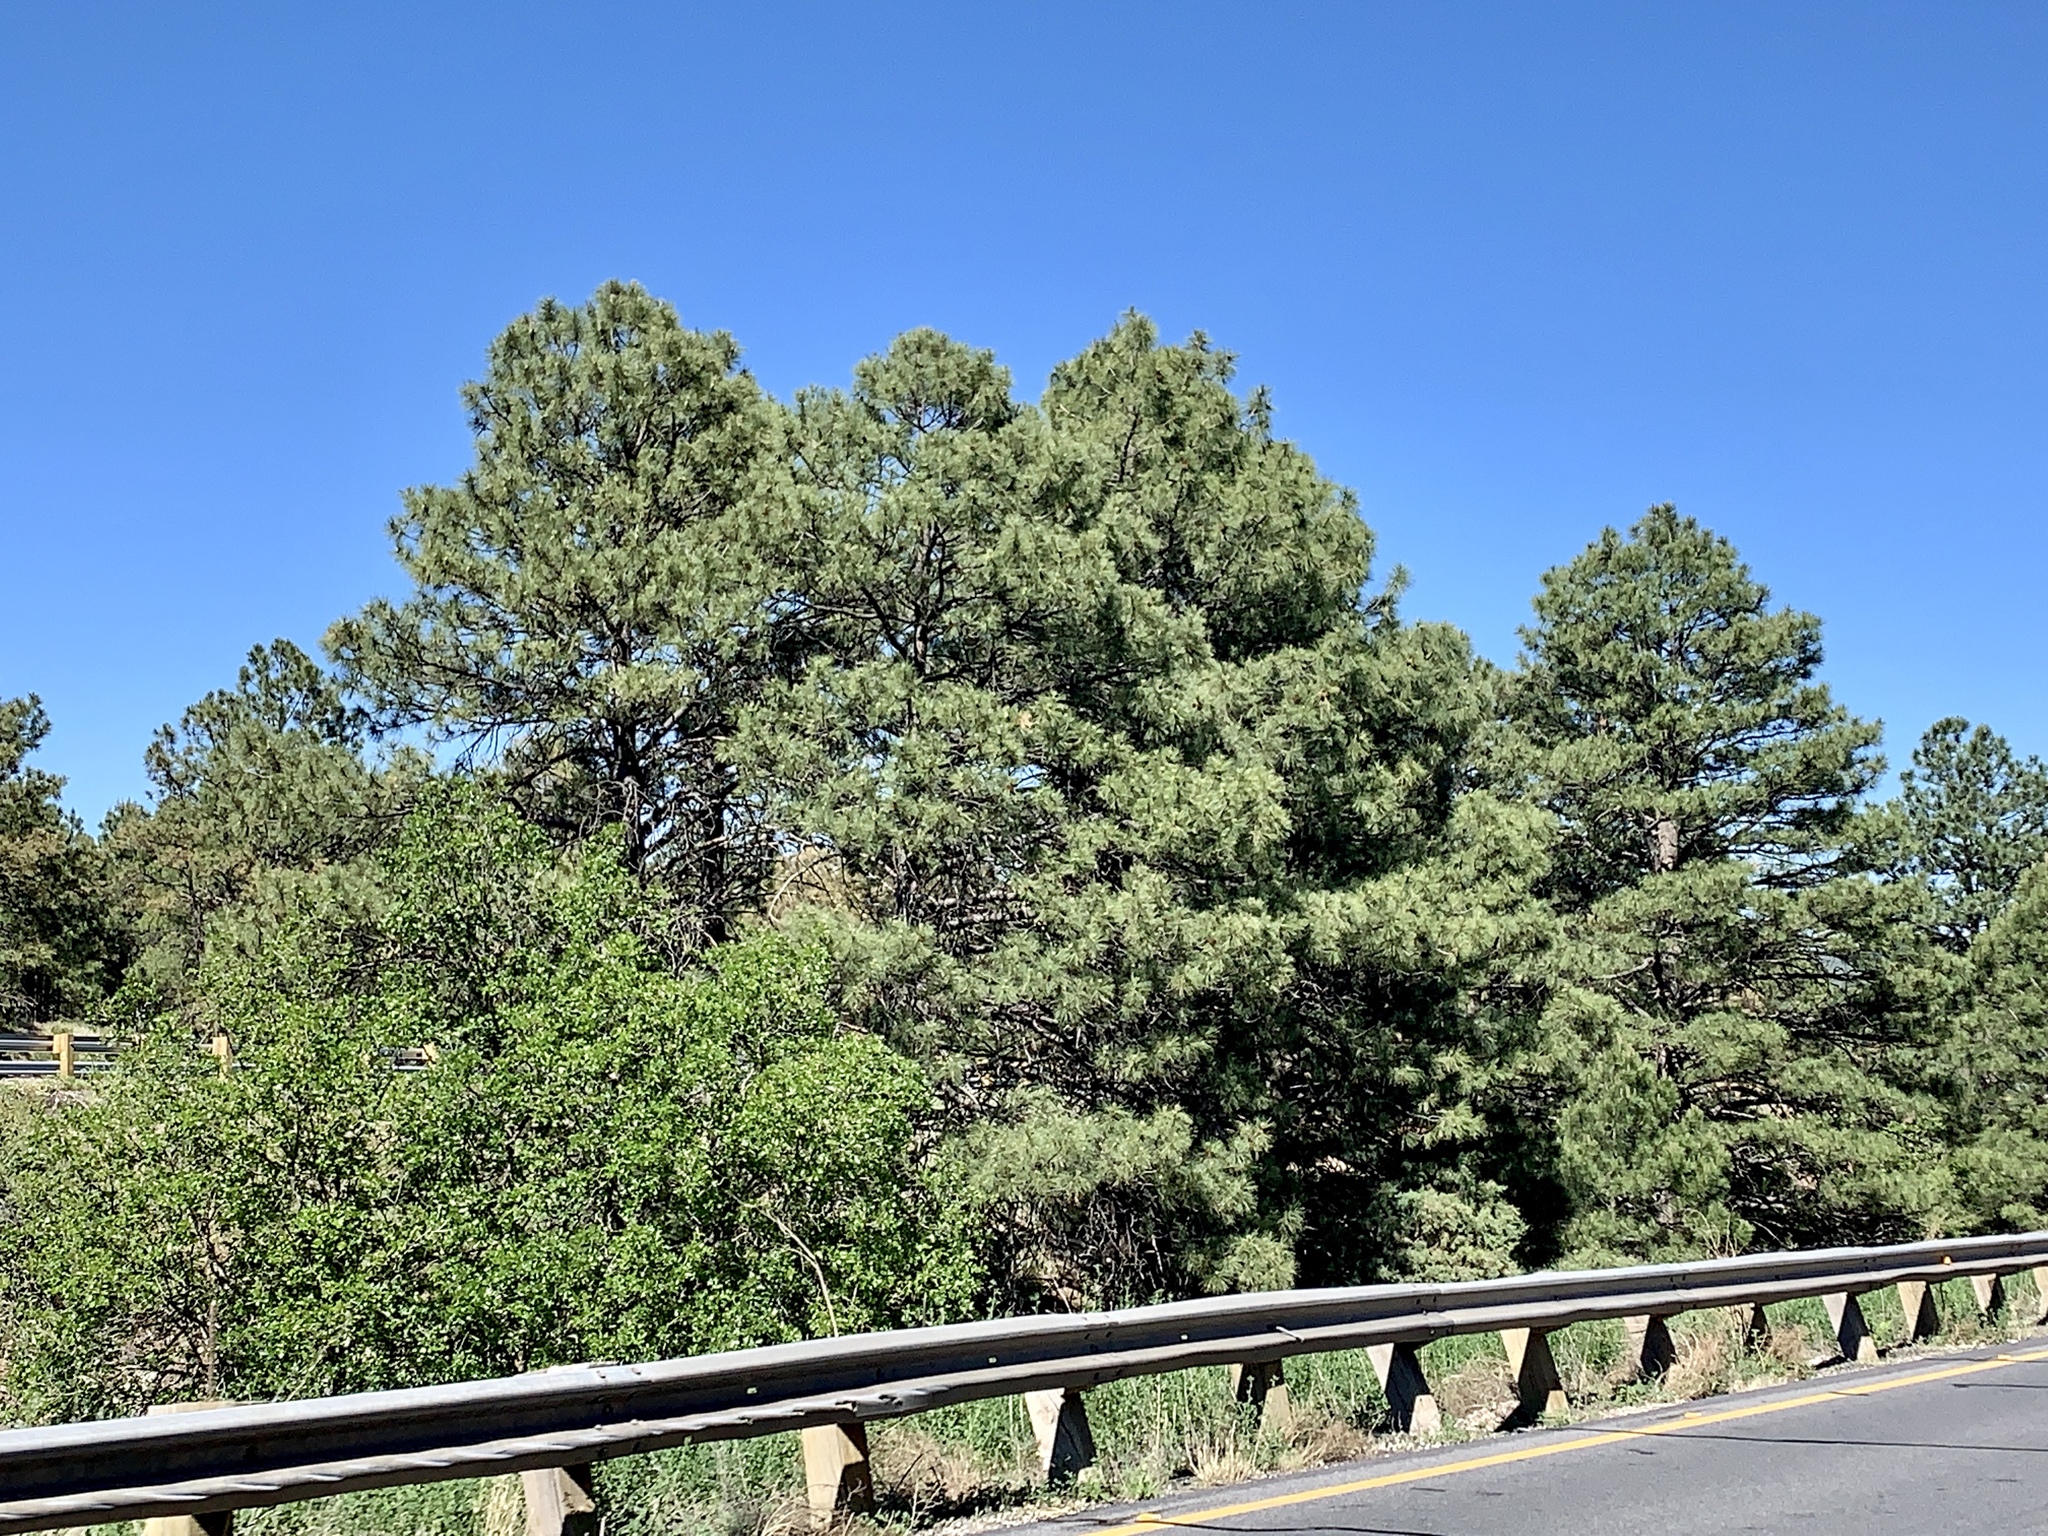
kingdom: Plantae
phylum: Tracheophyta
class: Pinopsida
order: Pinales
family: Pinaceae
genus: Pinus
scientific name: Pinus ponderosa
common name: Western yellow-pine
